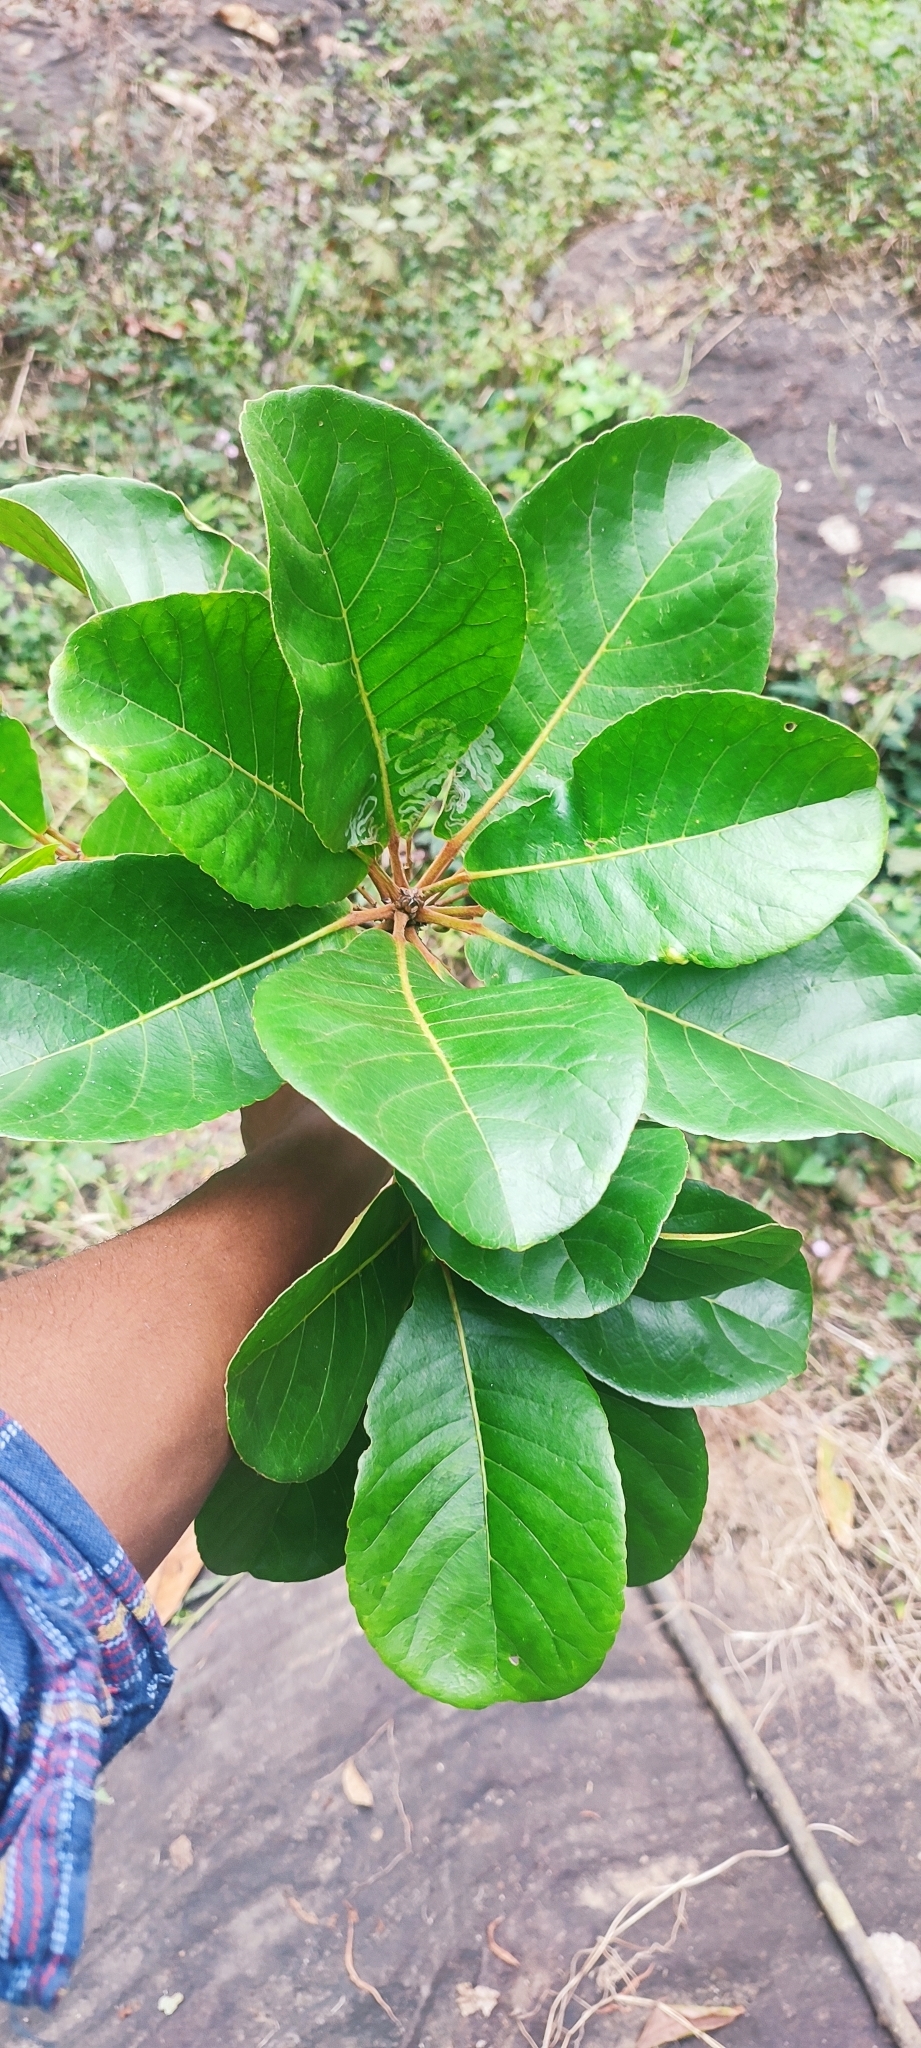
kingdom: Plantae
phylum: Tracheophyta
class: Magnoliopsida
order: Oxalidales
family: Elaeocarpaceae
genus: Elaeocarpus
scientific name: Elaeocarpus tuberculatus
